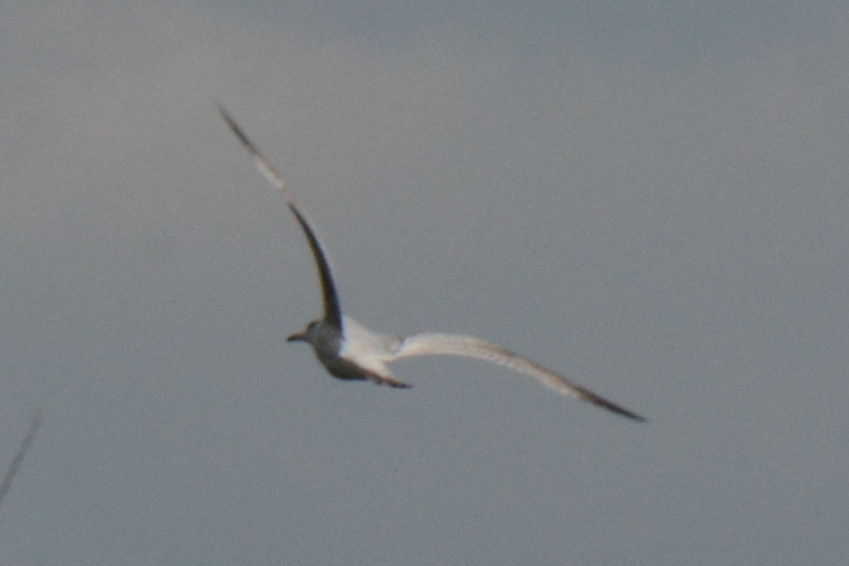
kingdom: Animalia
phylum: Chordata
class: Aves
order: Charadriiformes
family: Laridae
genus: Larus
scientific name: Larus argentatus
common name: Herring gull
